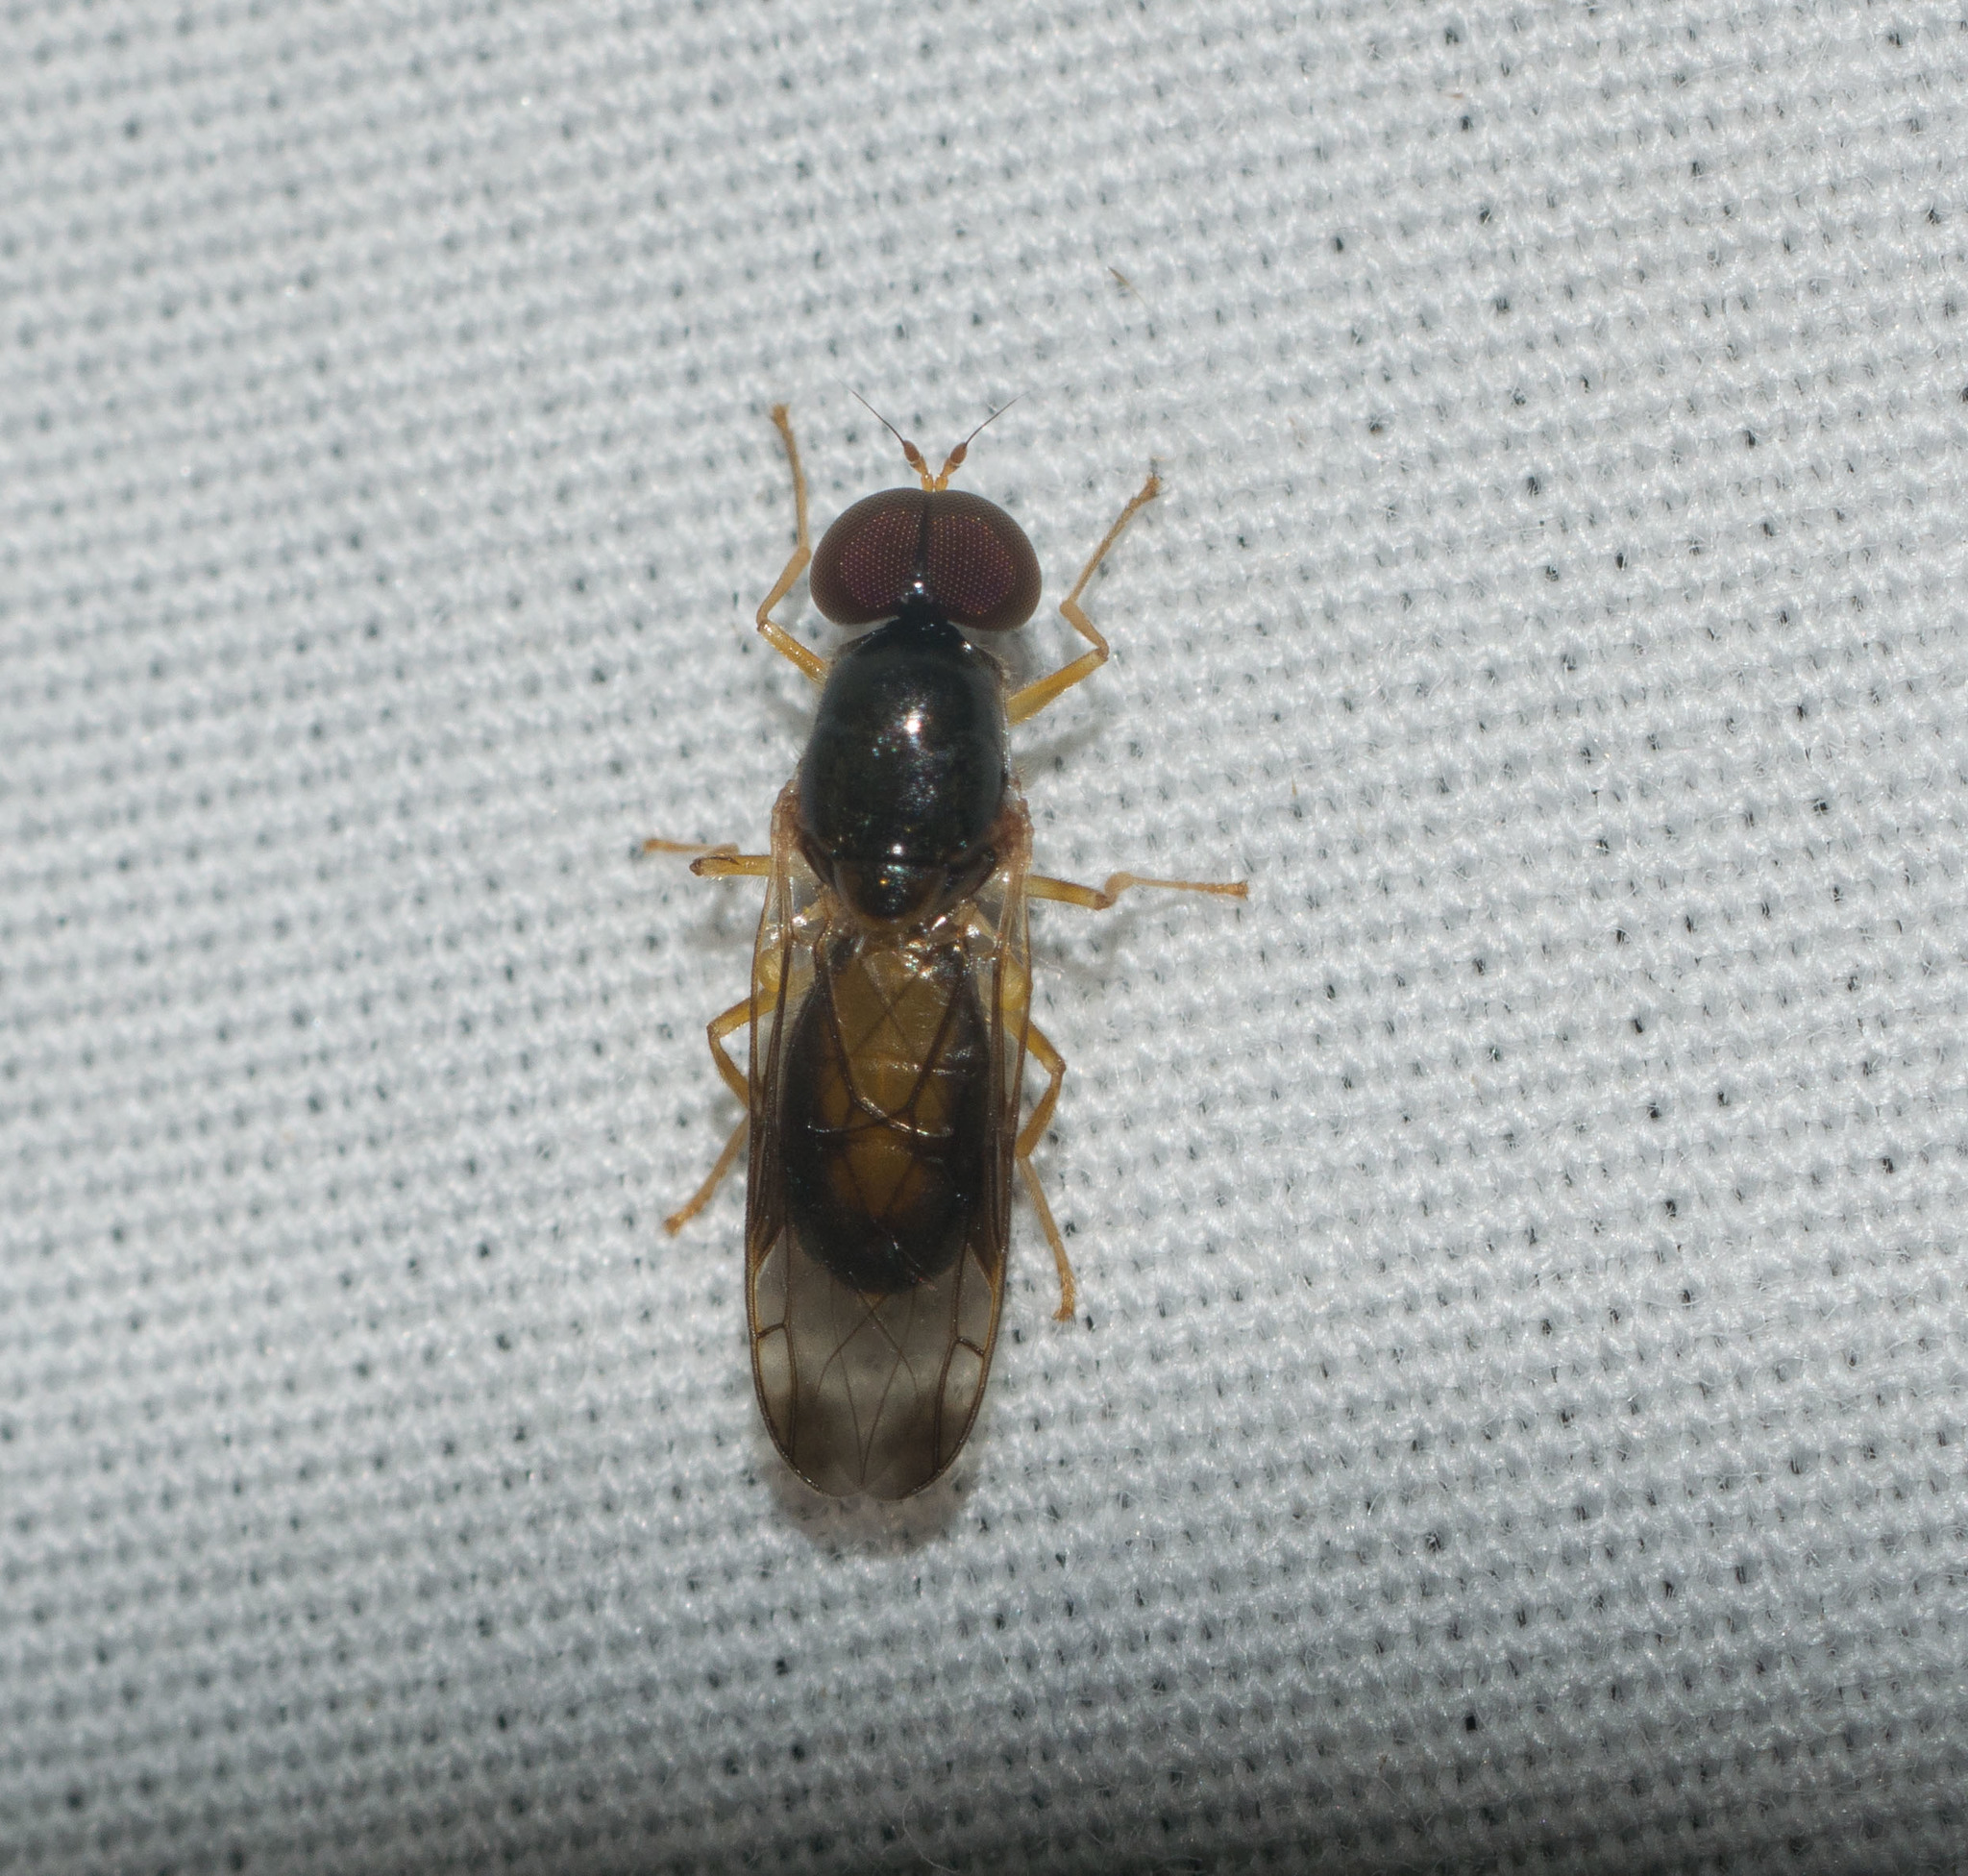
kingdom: Animalia
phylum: Arthropoda
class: Insecta
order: Diptera
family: Stratiomyidae
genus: Evaza
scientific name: Evaza javanensis
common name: Soldier fly
